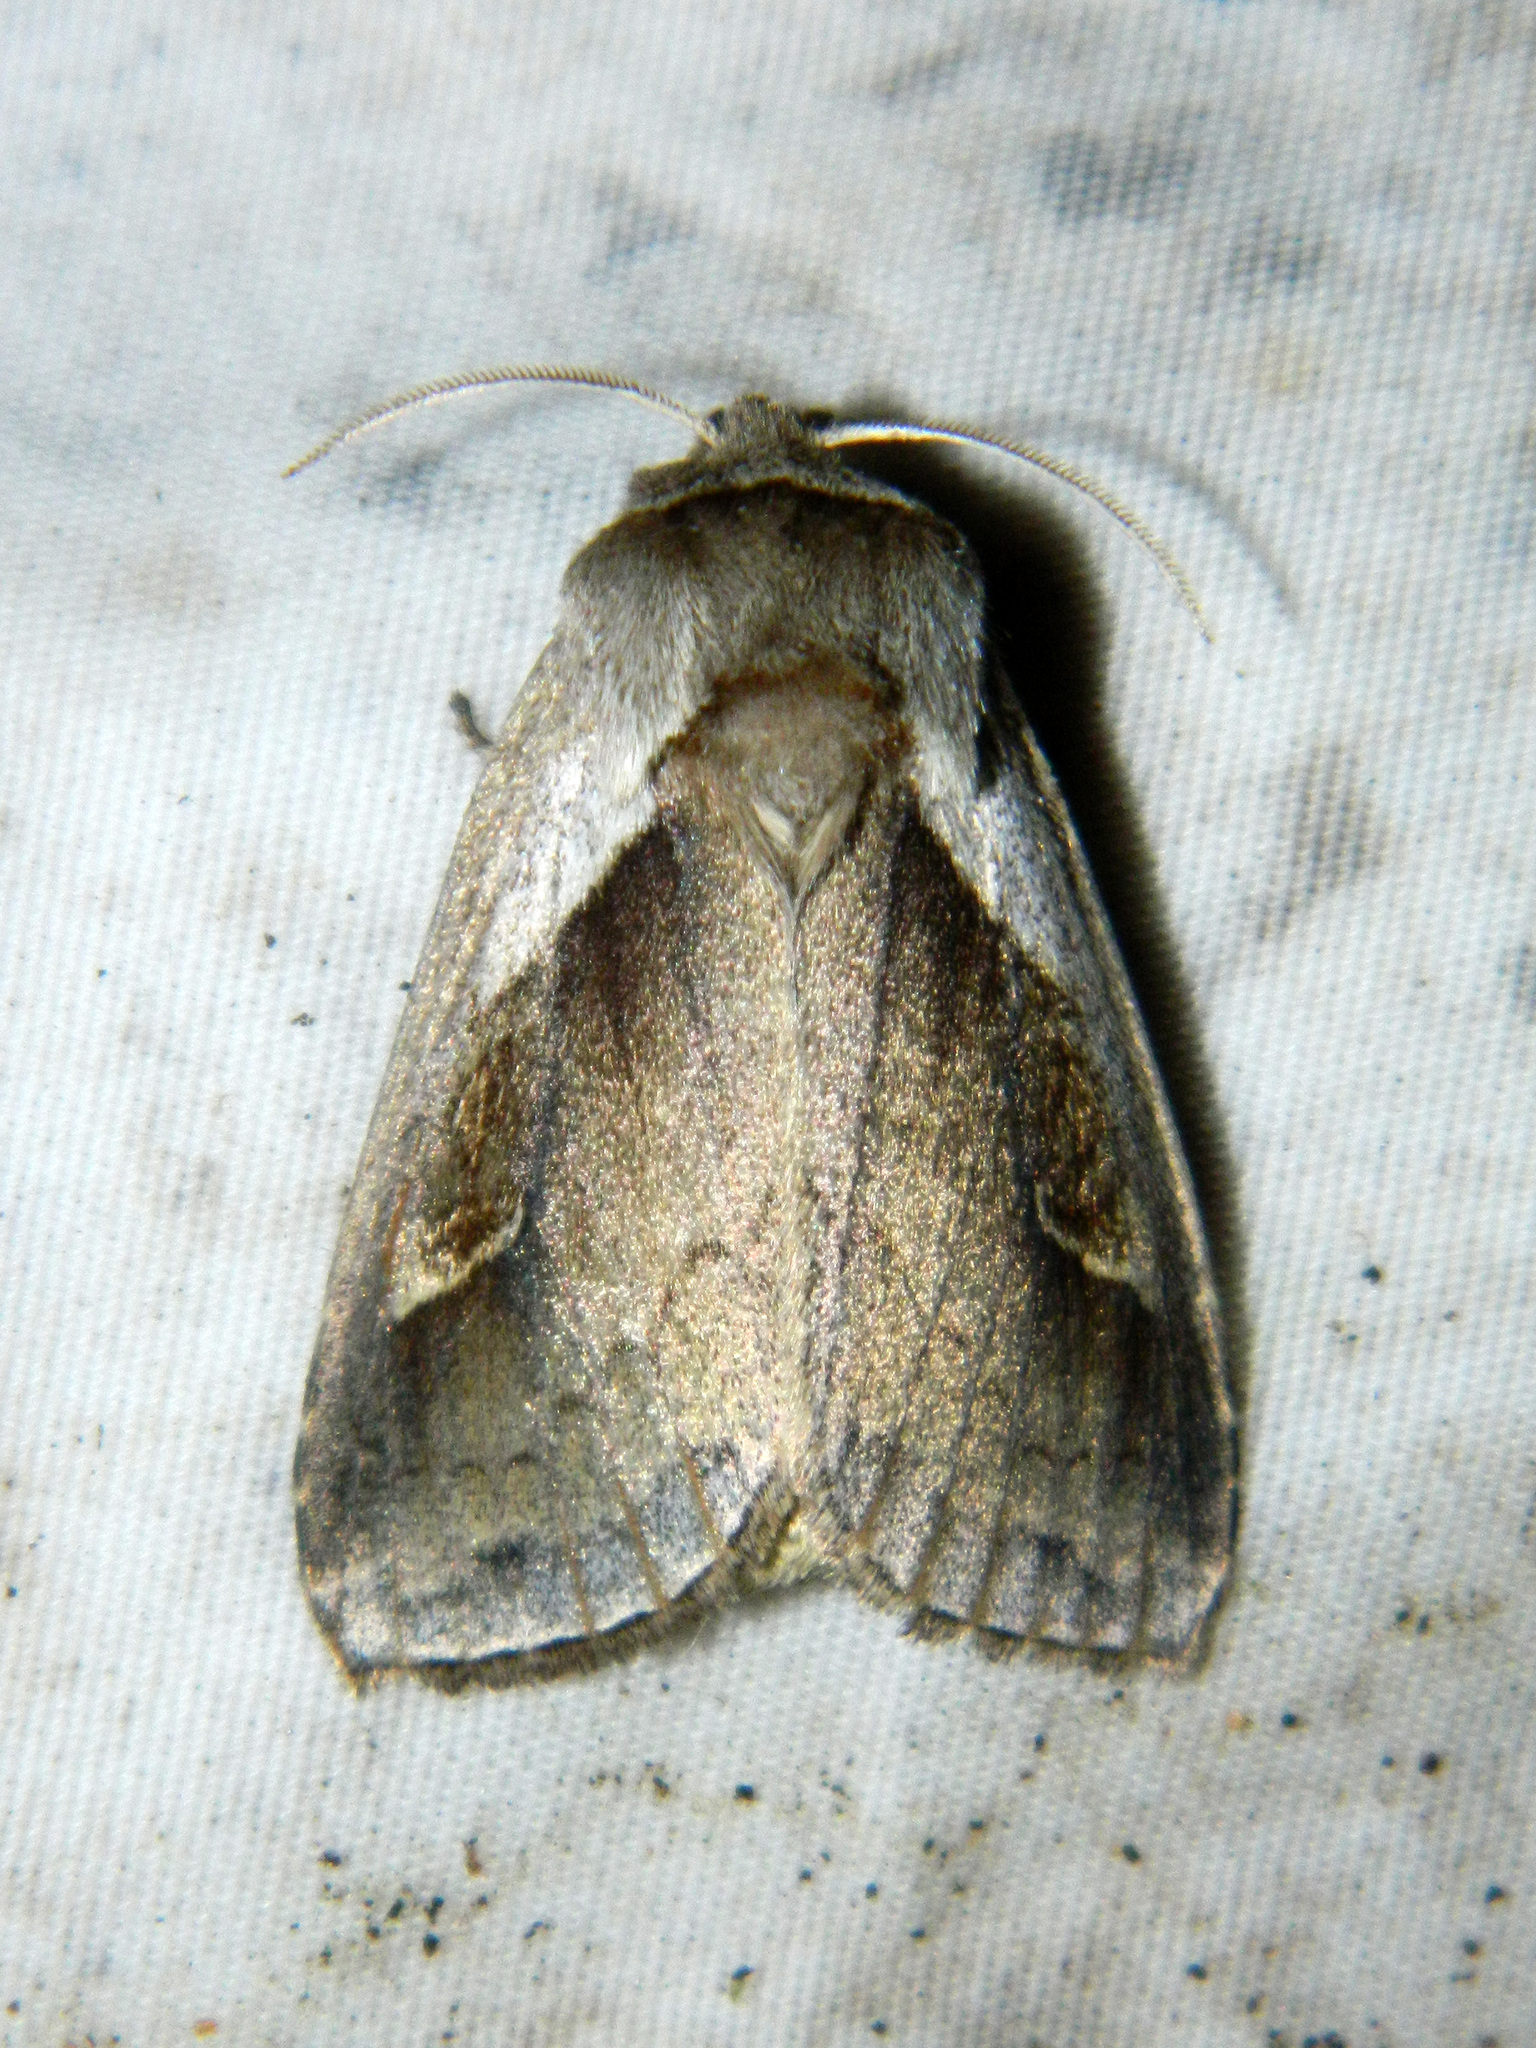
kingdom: Animalia
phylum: Arthropoda
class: Insecta
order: Lepidoptera
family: Noctuidae
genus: Bellura
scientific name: Bellura obliqua
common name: Cattail borer moth
